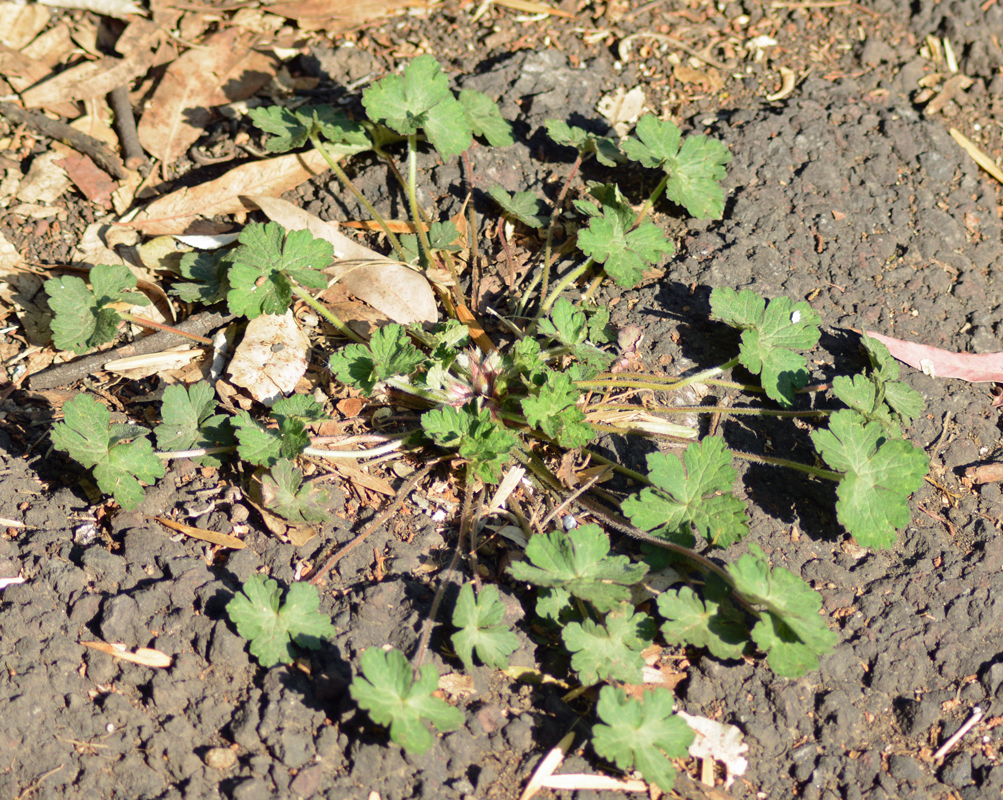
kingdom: Plantae
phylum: Tracheophyta
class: Magnoliopsida
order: Geraniales
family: Geraniaceae
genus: Geranium
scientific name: Geranium seemannii
